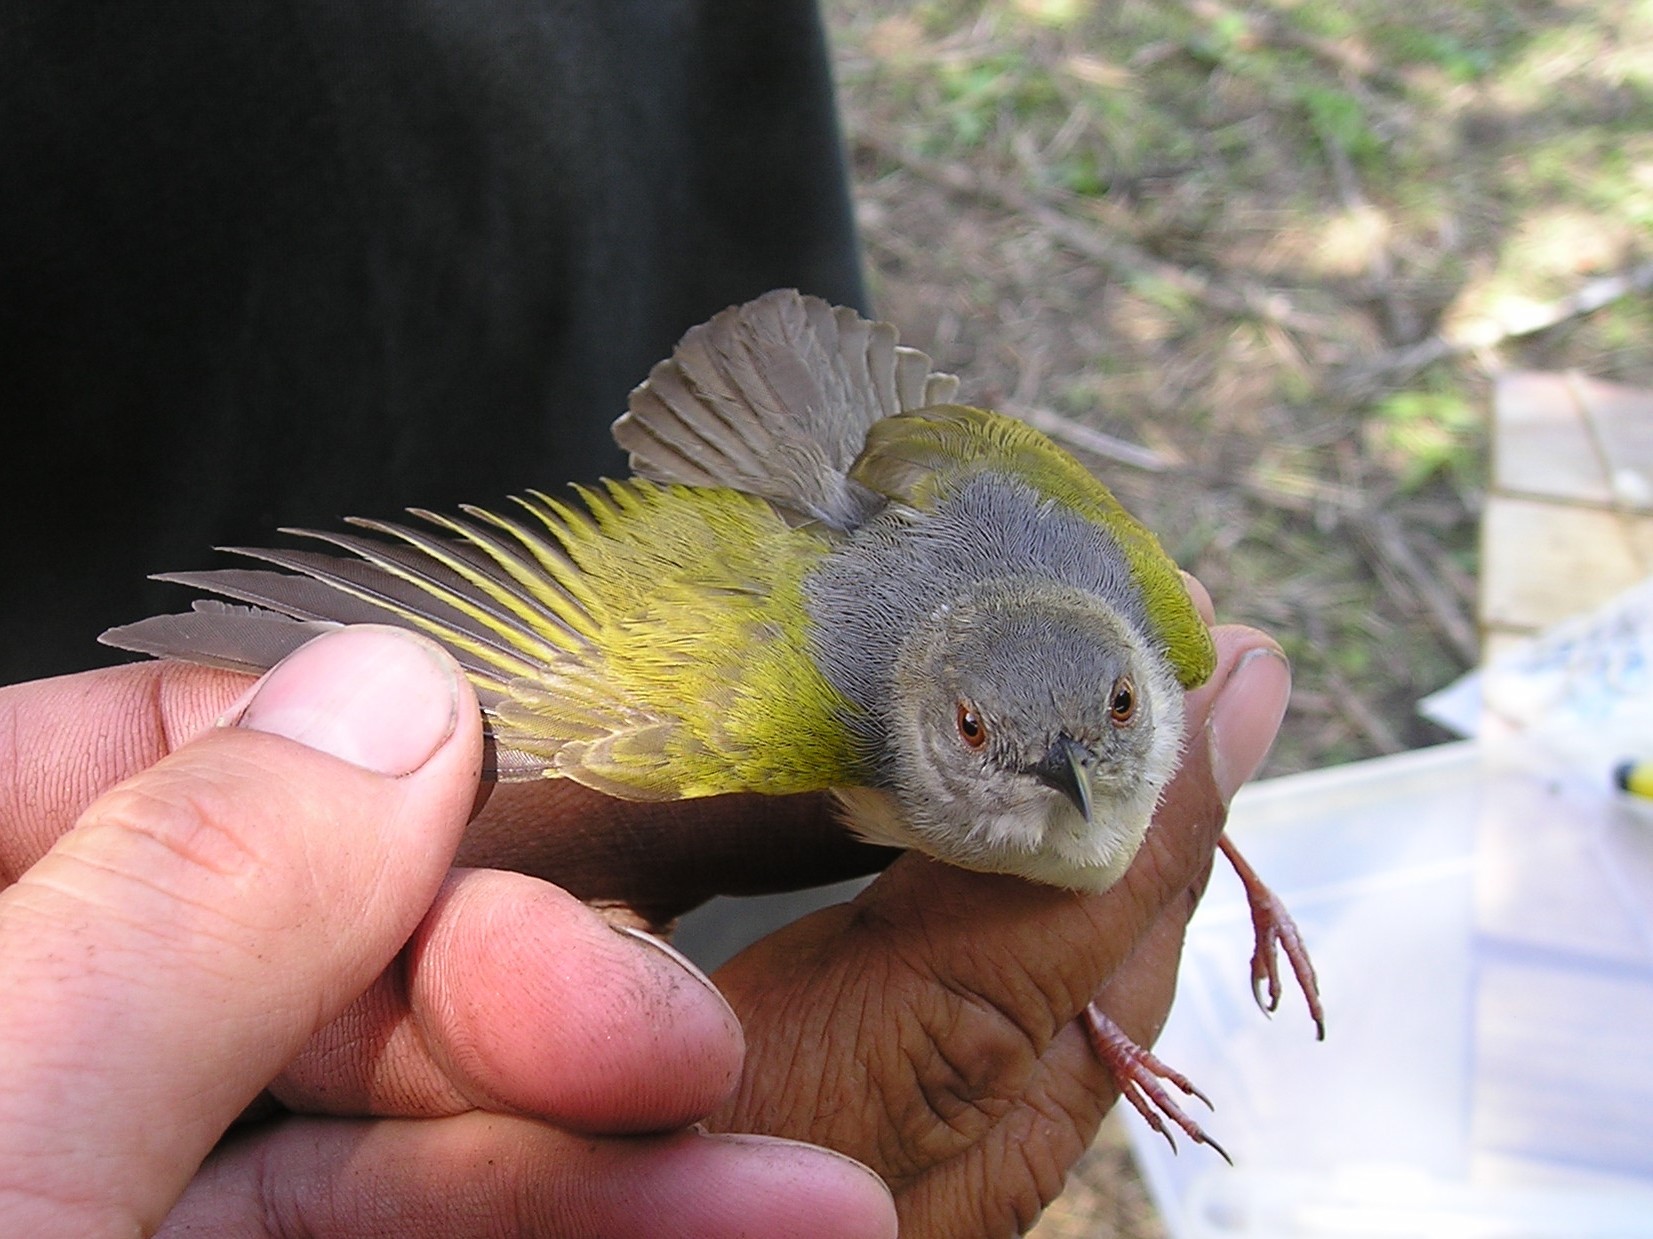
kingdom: Animalia
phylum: Chordata
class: Aves
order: Passeriformes
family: Cisticolidae
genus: Camaroptera
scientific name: Camaroptera brachyura
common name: Green-backed camaroptera
